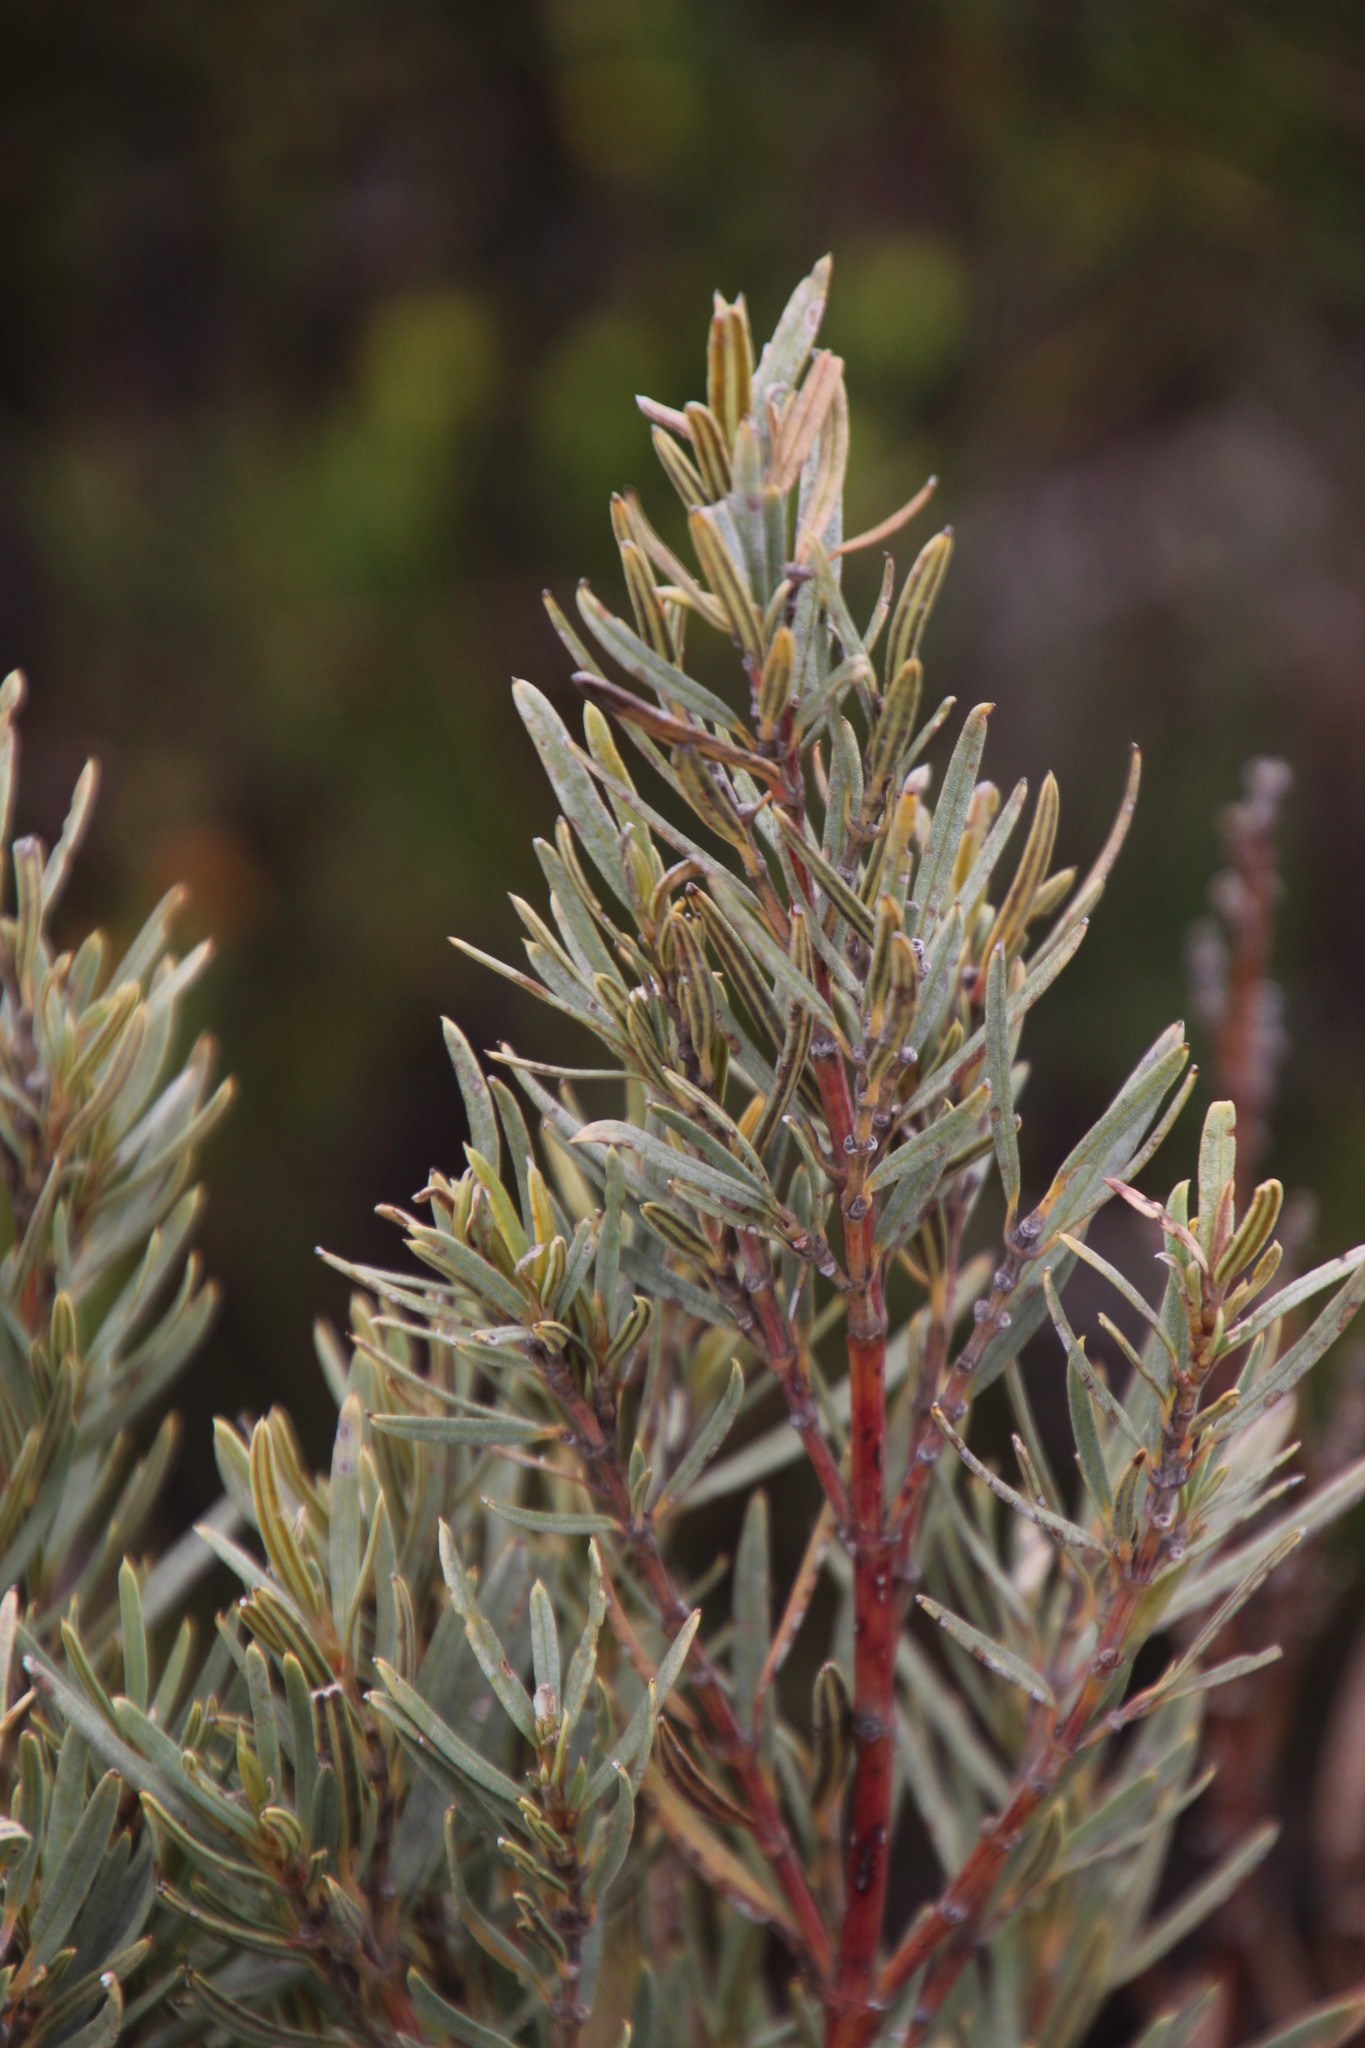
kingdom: Plantae
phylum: Tracheophyta
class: Magnoliopsida
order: Cornales
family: Grubbiaceae
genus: Grubbia
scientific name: Grubbia tomentosa
